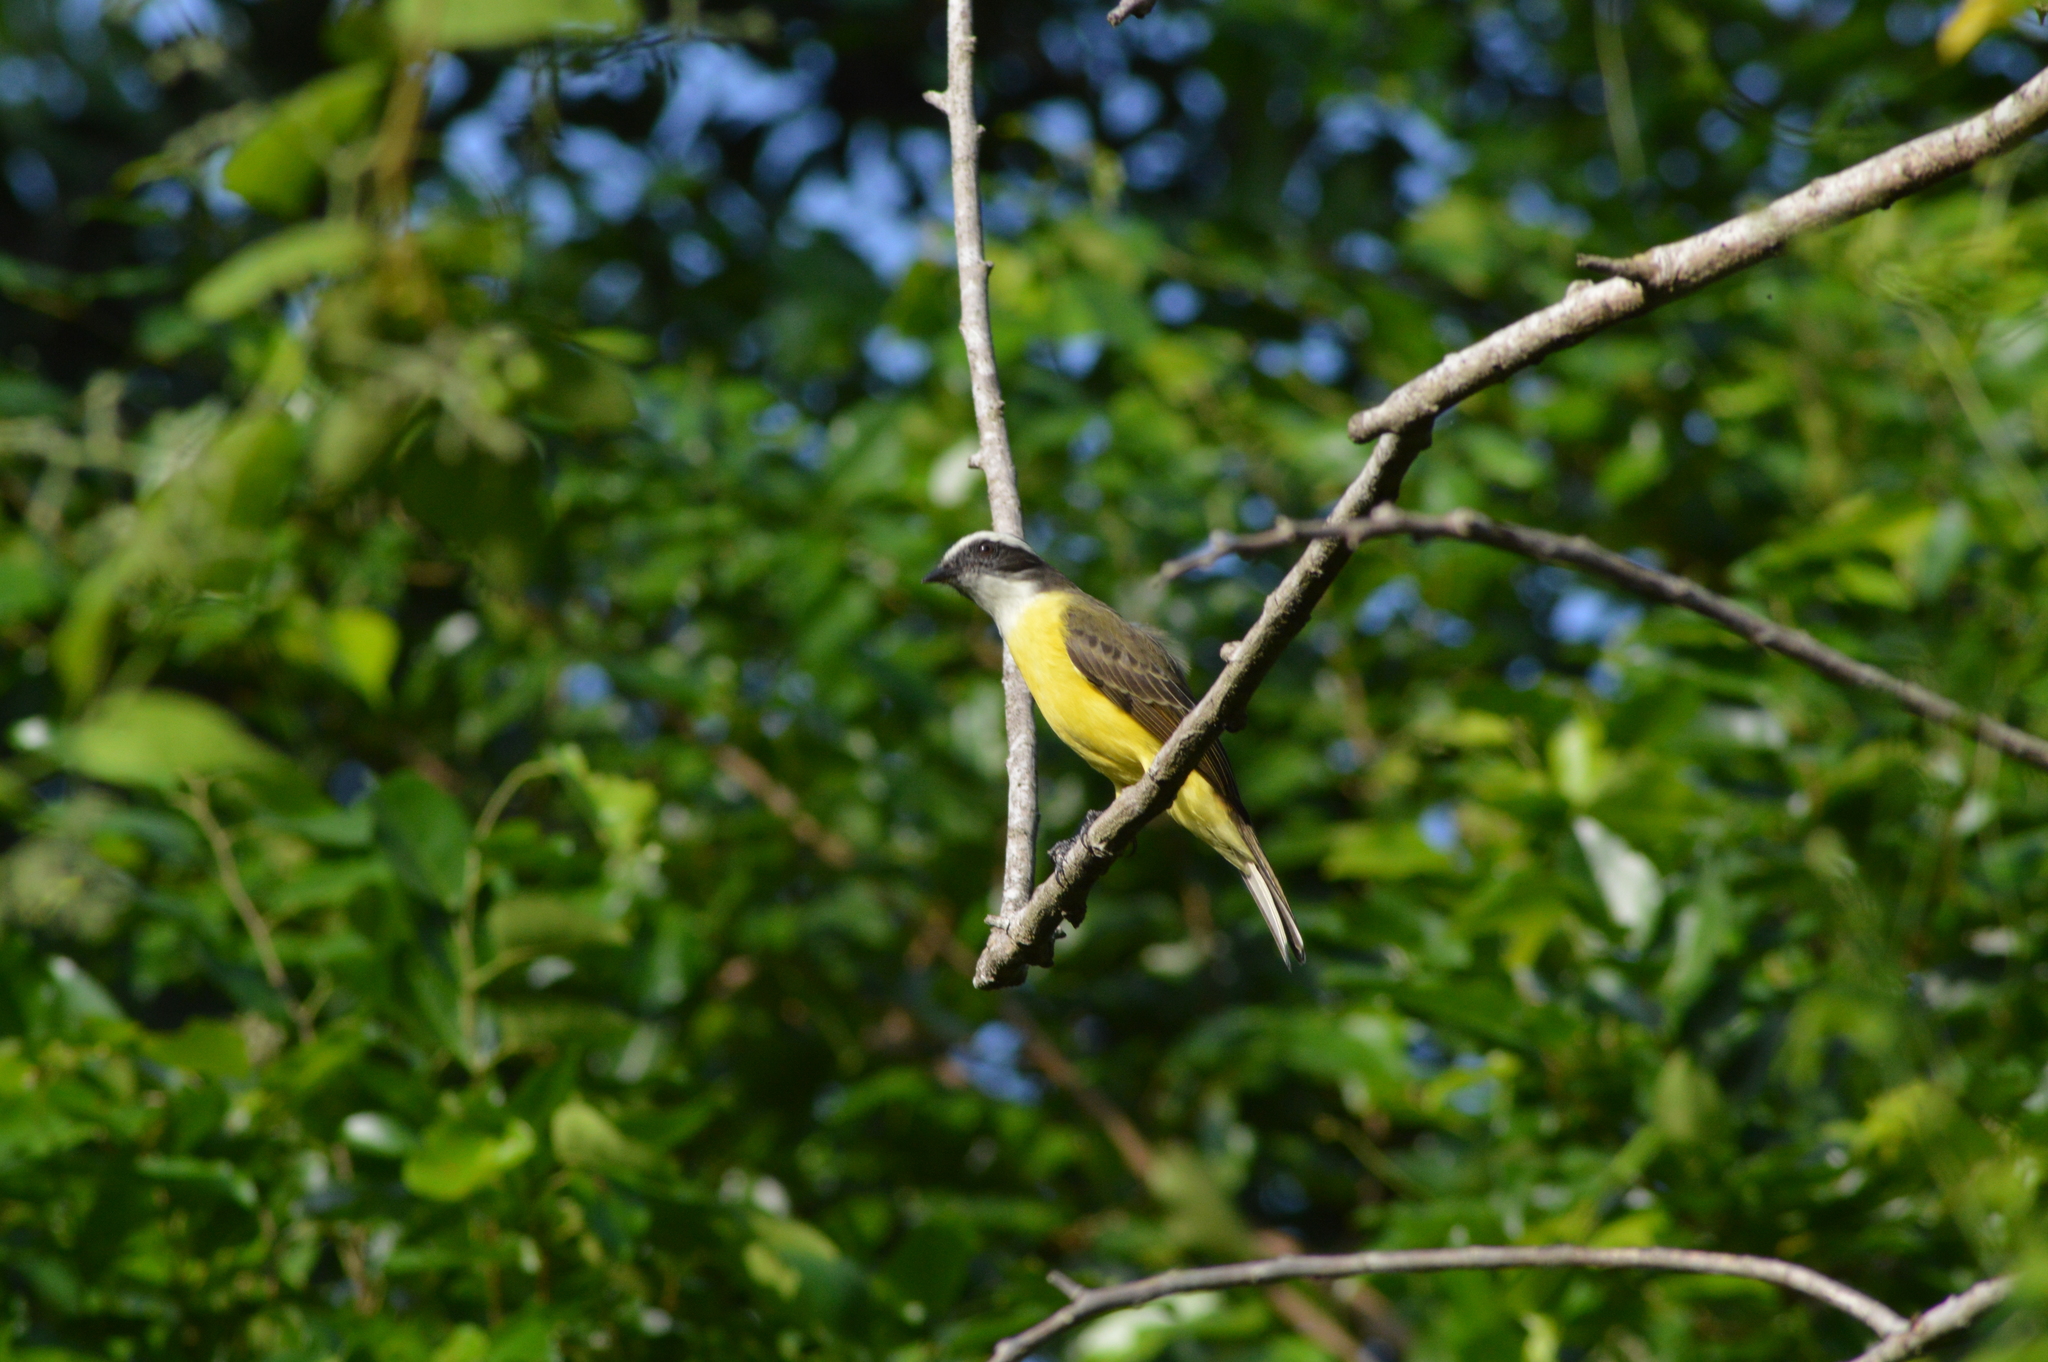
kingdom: Animalia
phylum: Chordata
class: Aves
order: Passeriformes
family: Tyrannidae
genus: Myiozetetes
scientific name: Myiozetetes similis
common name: Social flycatcher
